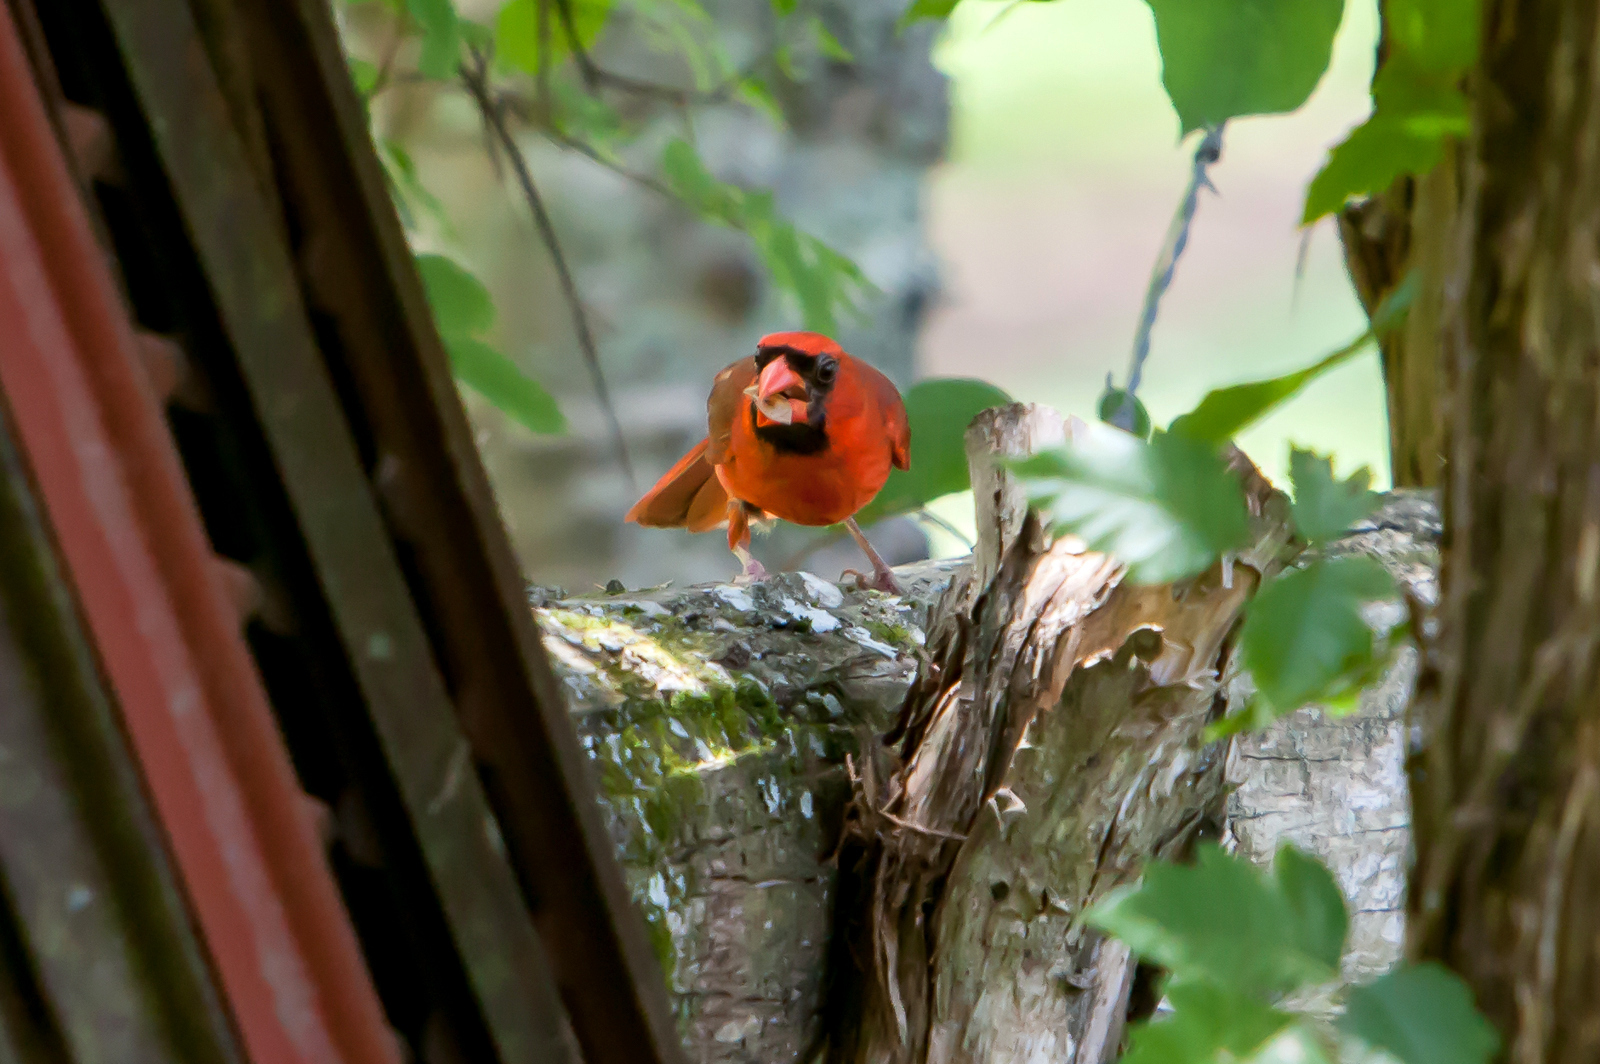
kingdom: Animalia
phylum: Chordata
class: Aves
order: Passeriformes
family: Cardinalidae
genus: Cardinalis
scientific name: Cardinalis cardinalis
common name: Northern cardinal
